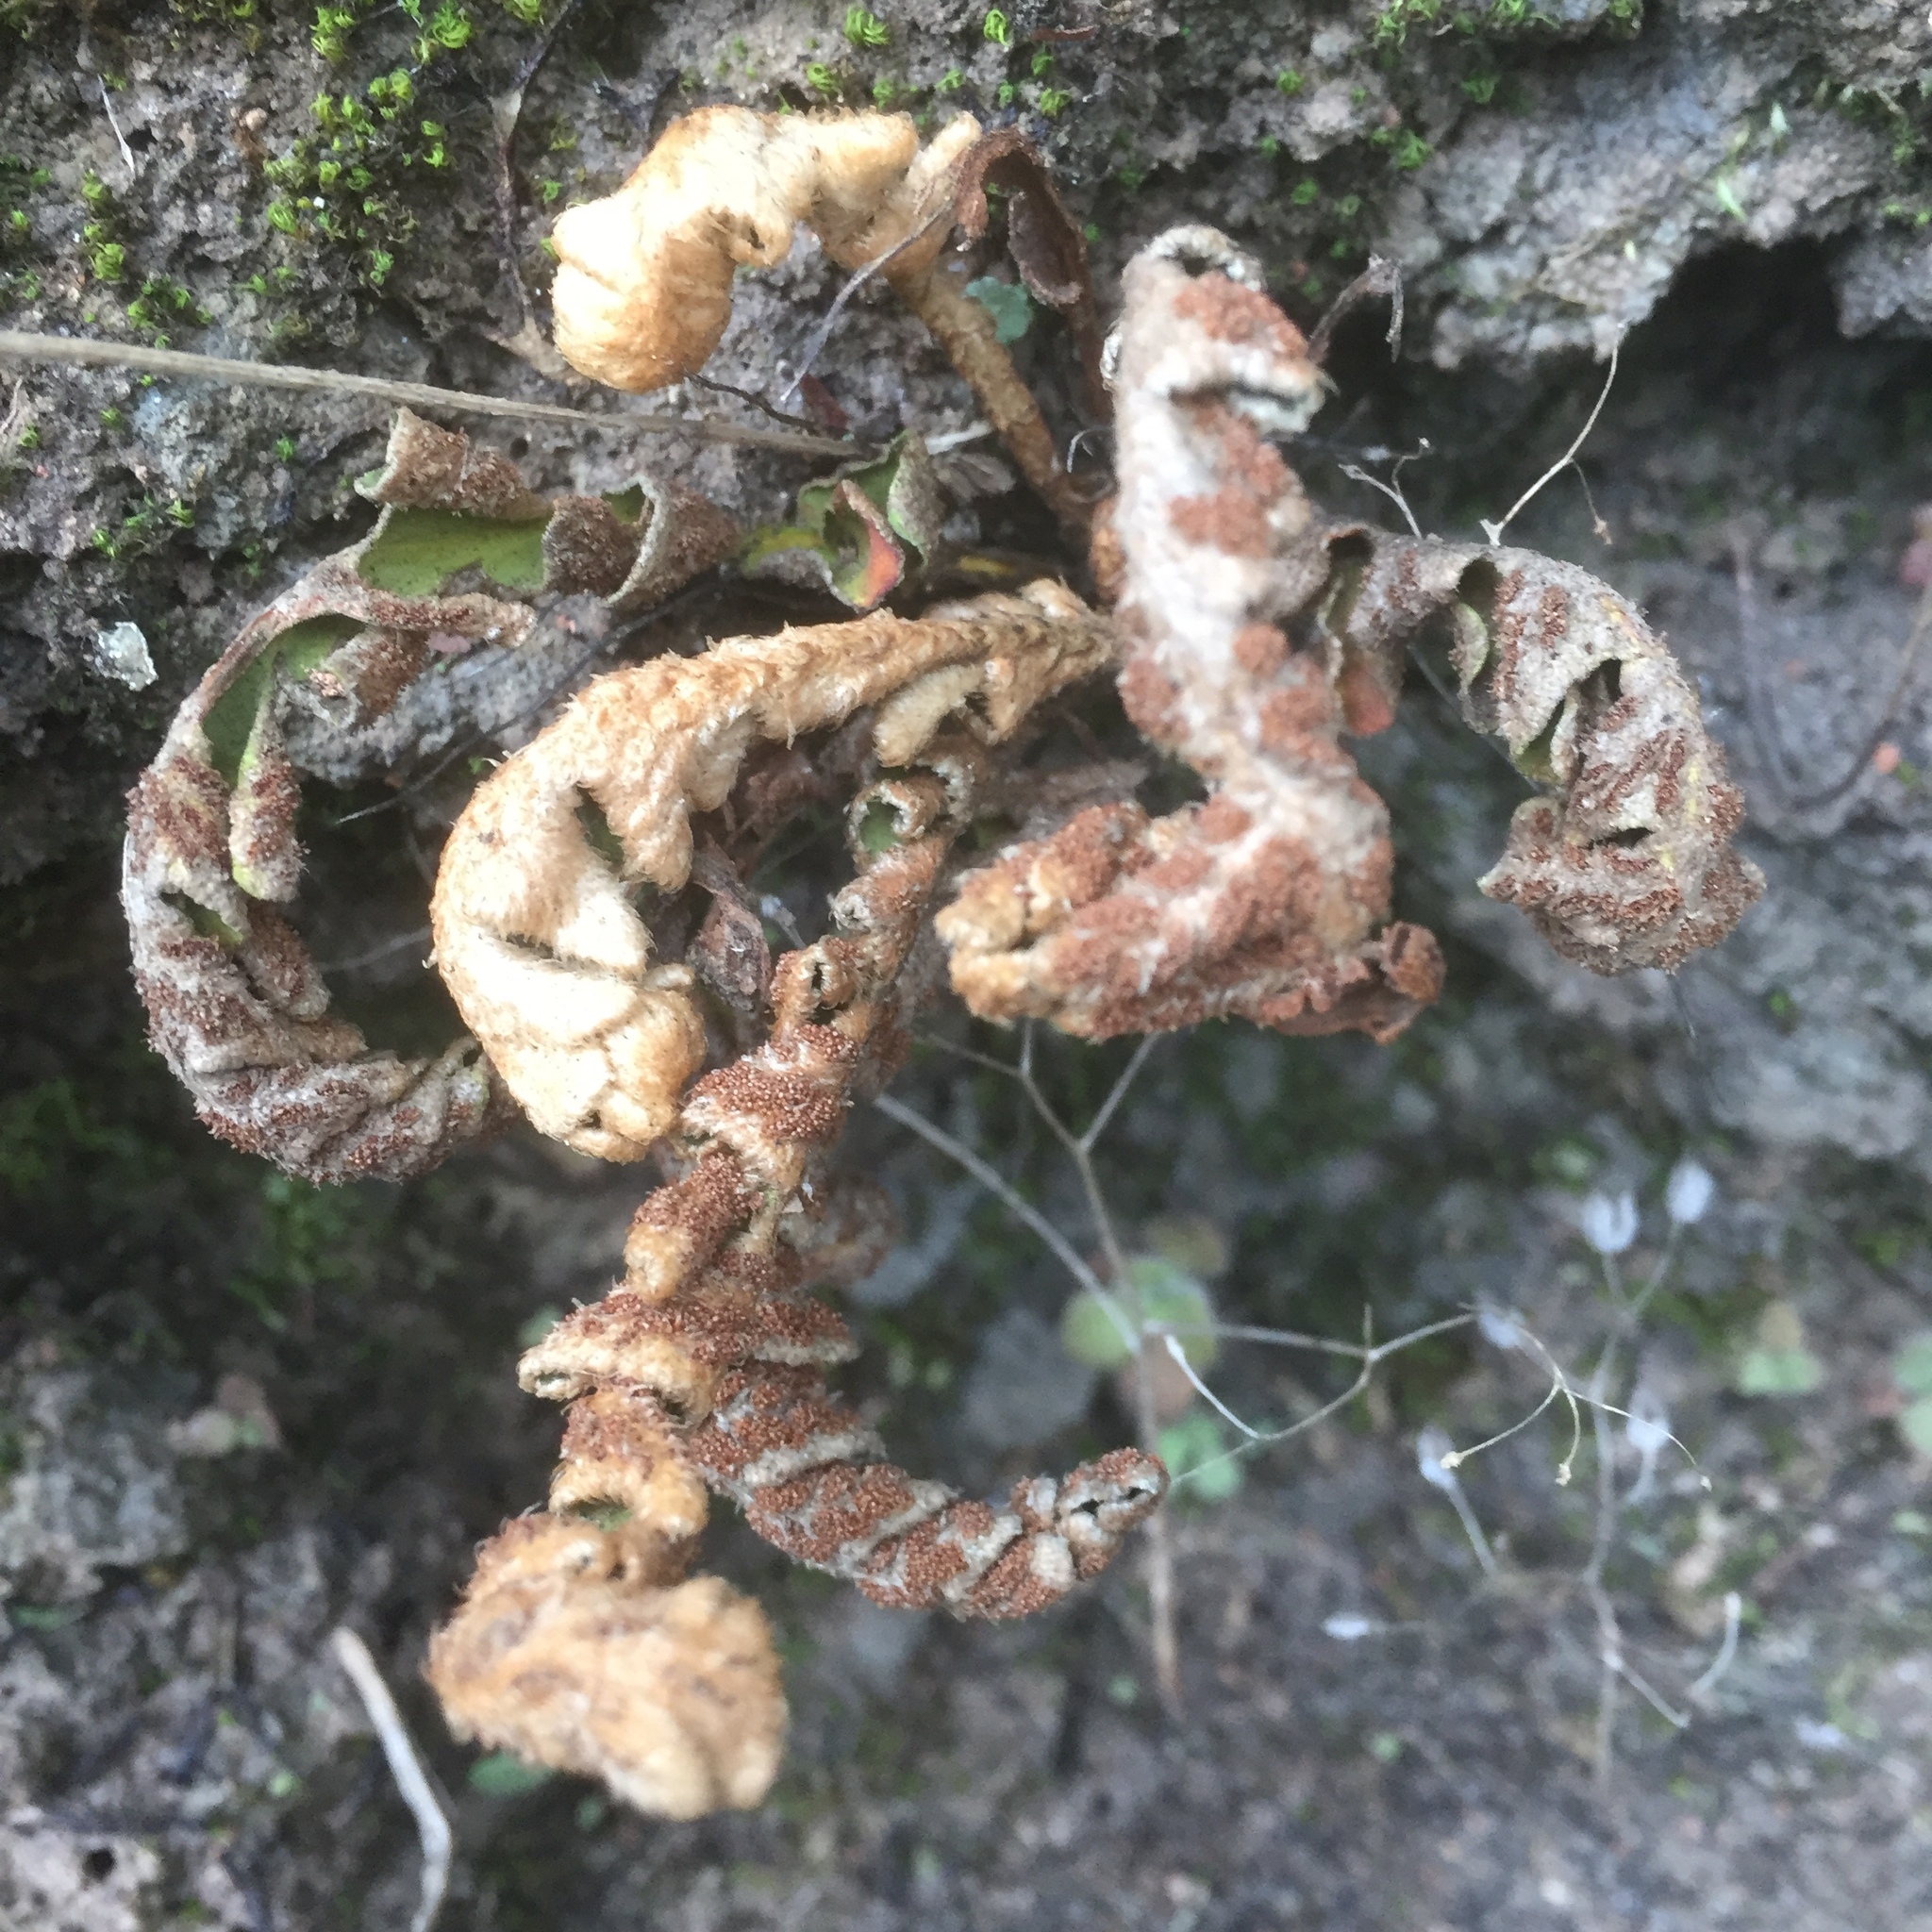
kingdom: Plantae
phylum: Tracheophyta
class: Polypodiopsida
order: Polypodiales
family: Aspleniaceae
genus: Asplenium
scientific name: Asplenium lolegnamense
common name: Madeira rustyback fern
